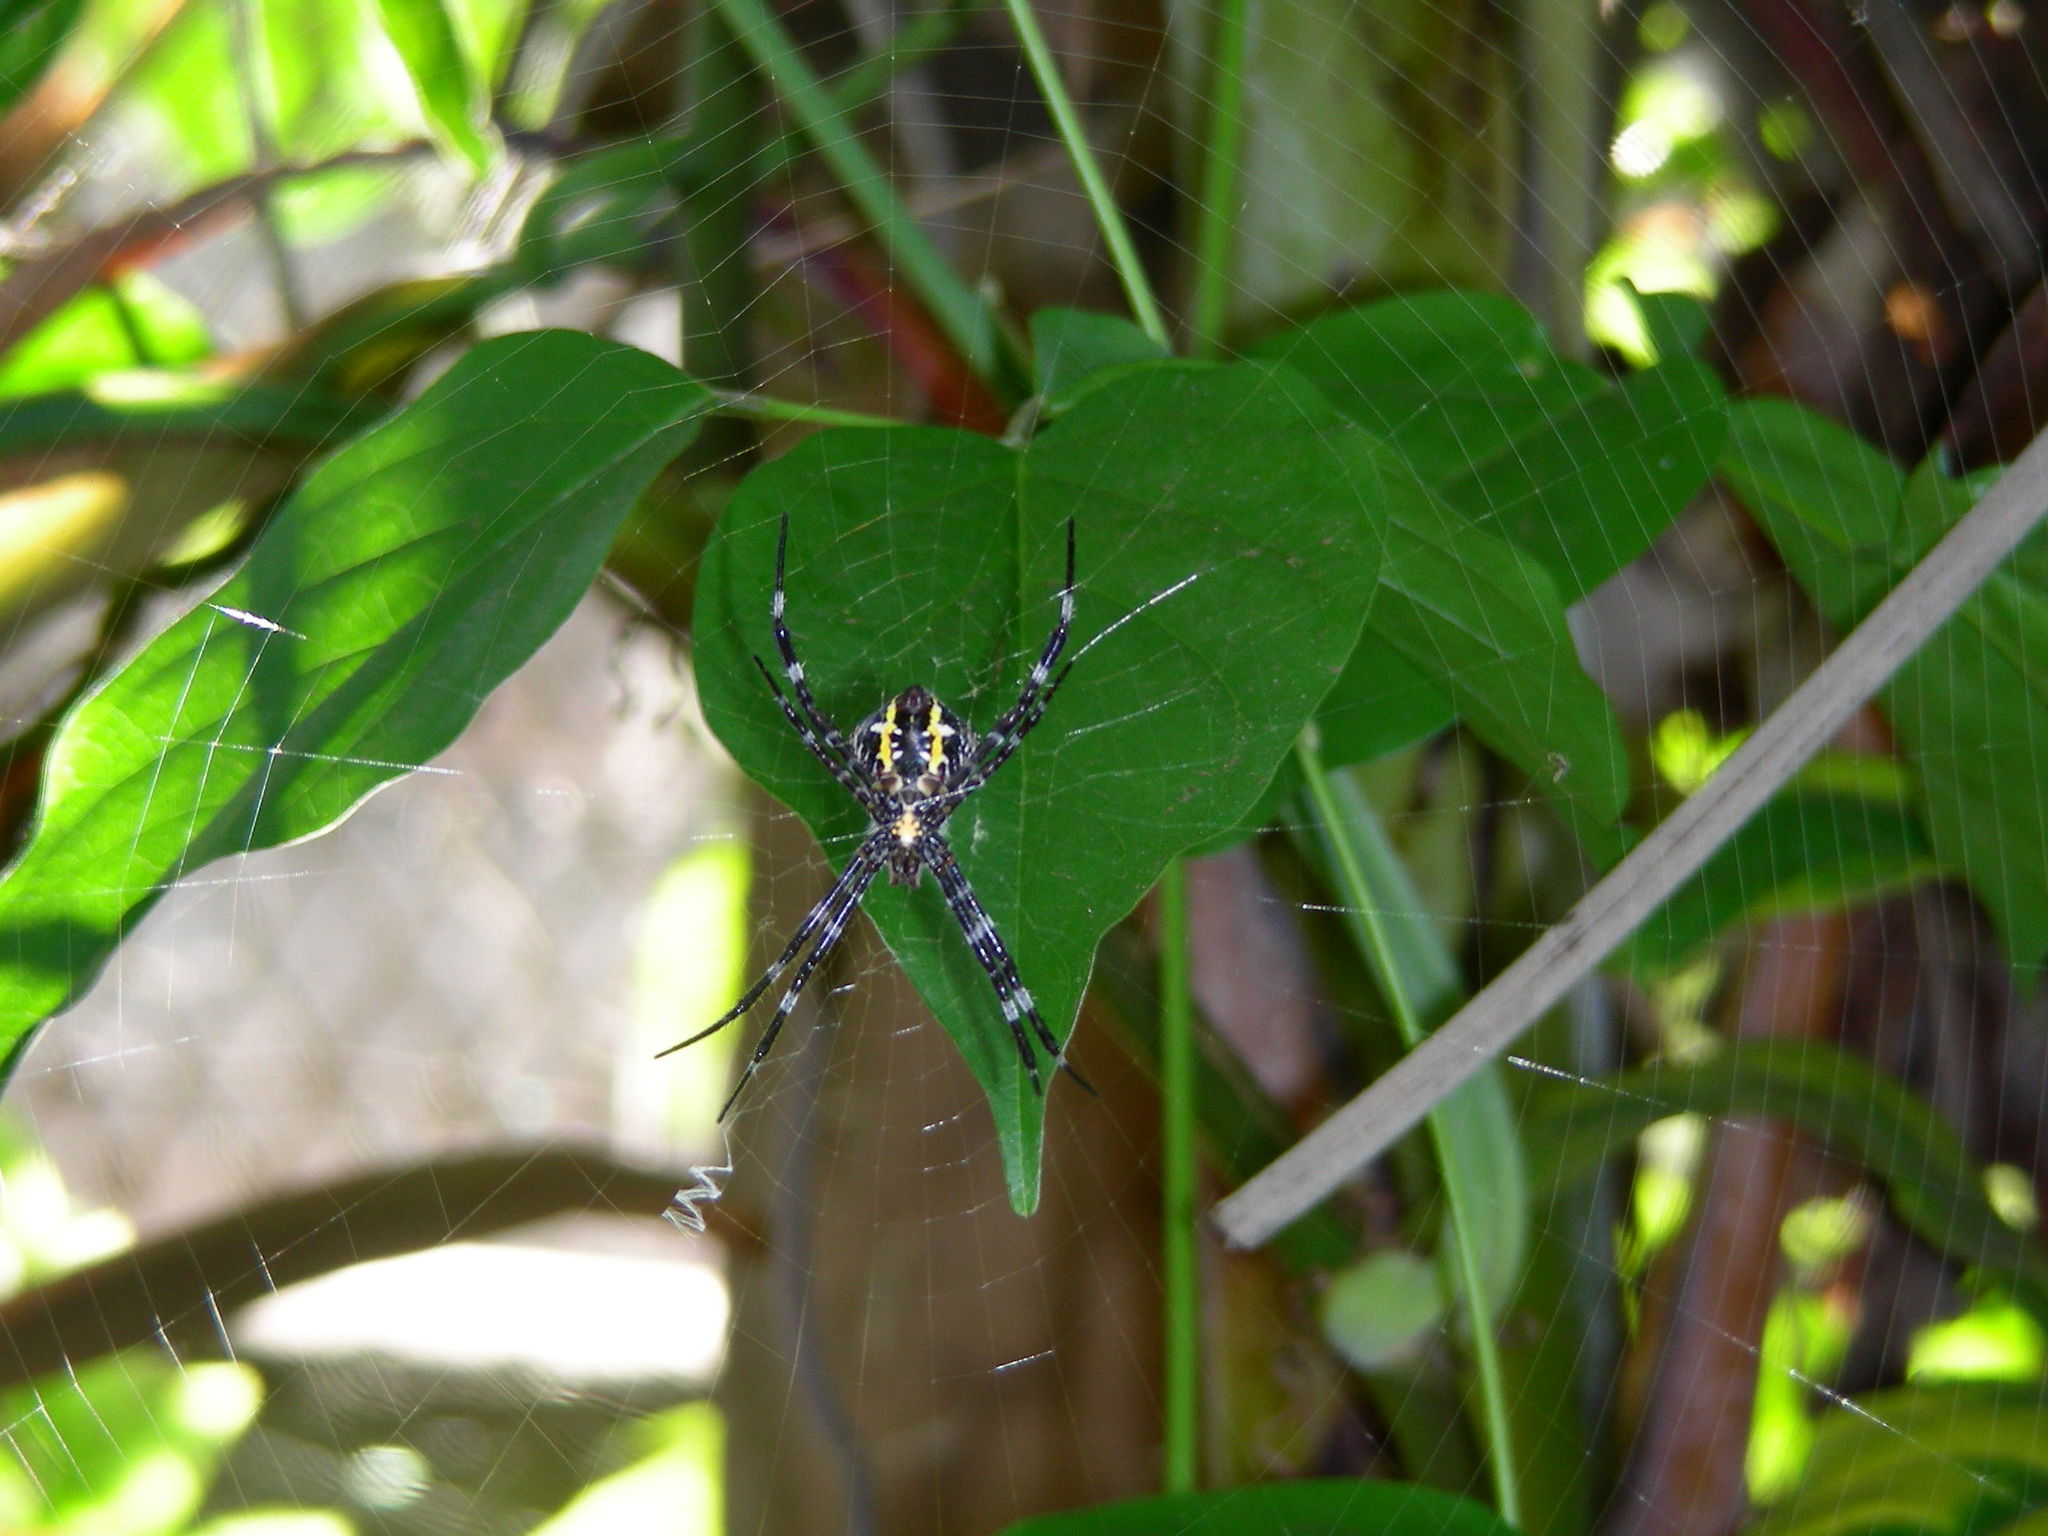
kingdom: Animalia
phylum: Arthropoda
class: Arachnida
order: Araneae
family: Araneidae
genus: Argiope
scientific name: Argiope appensa
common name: Garden spider
